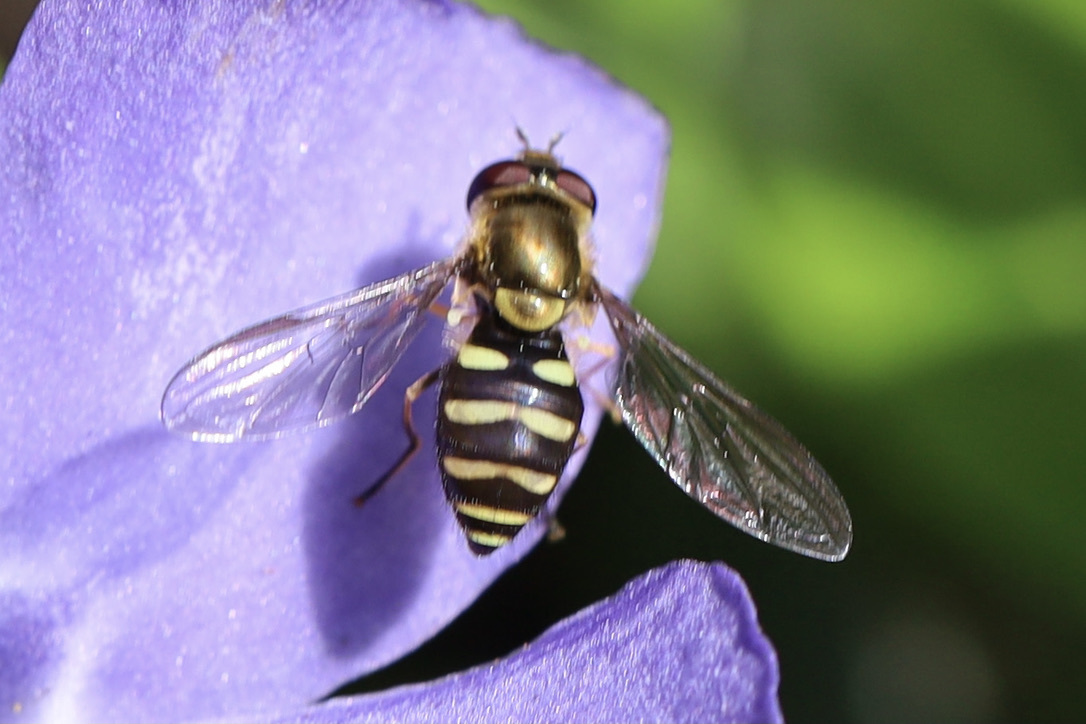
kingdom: Animalia
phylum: Arthropoda
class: Insecta
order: Diptera
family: Syrphidae
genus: Syrphus
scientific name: Syrphus opinator
